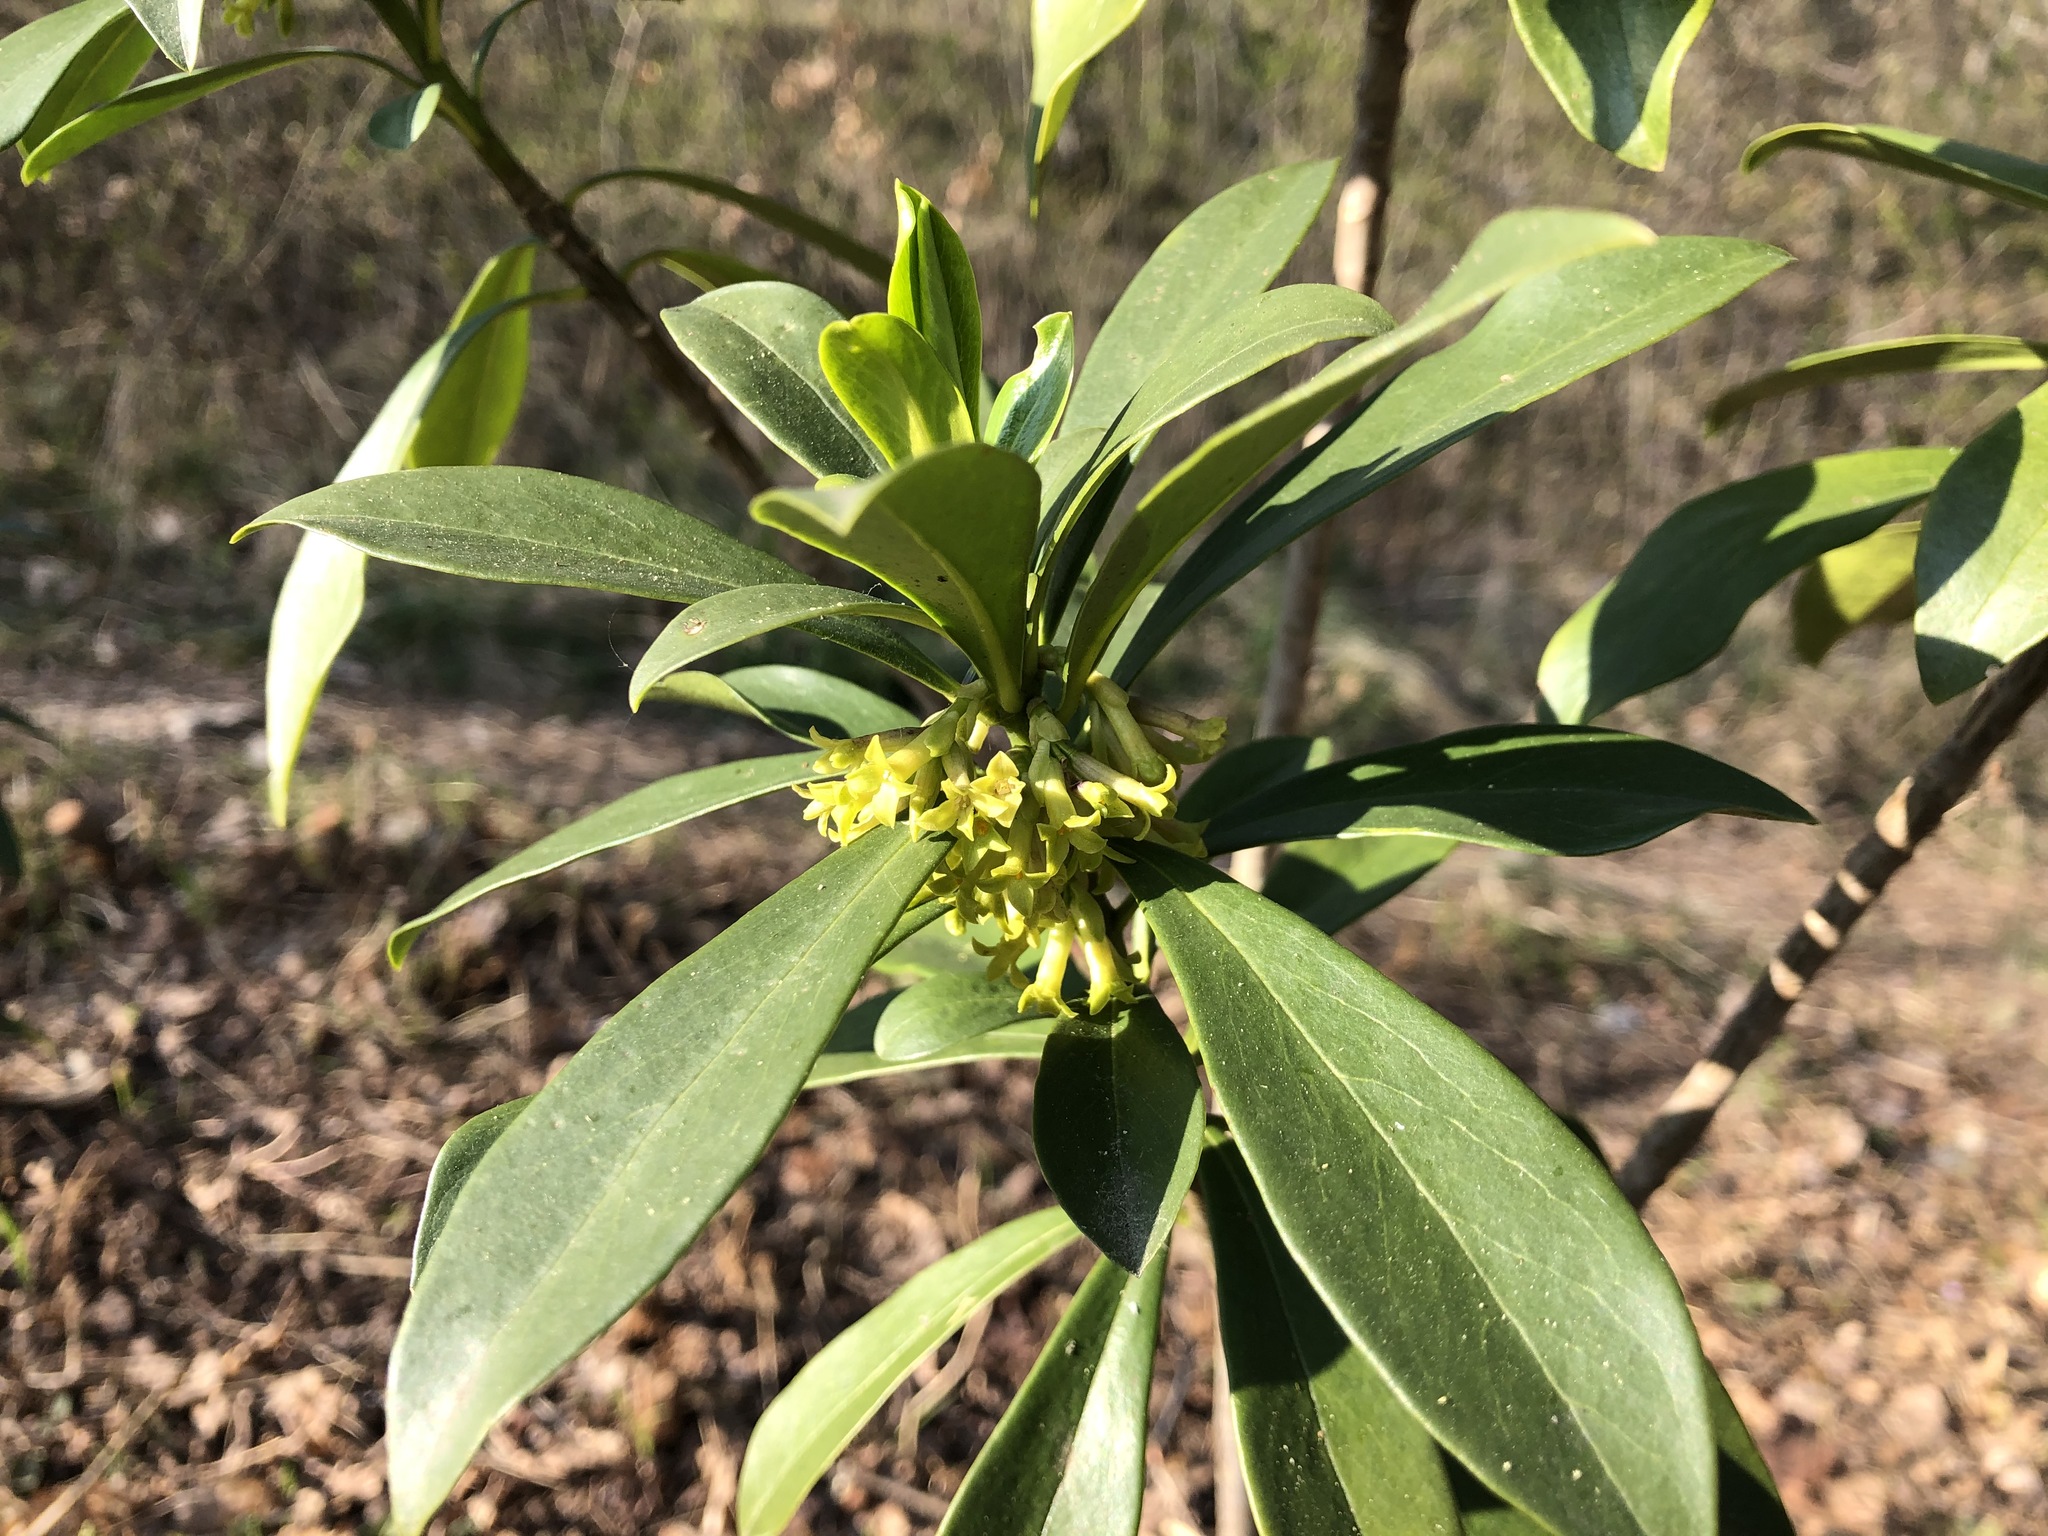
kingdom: Plantae
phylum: Tracheophyta
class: Magnoliopsida
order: Malvales
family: Thymelaeaceae
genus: Daphne
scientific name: Daphne laureola
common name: Spurge-laurel
